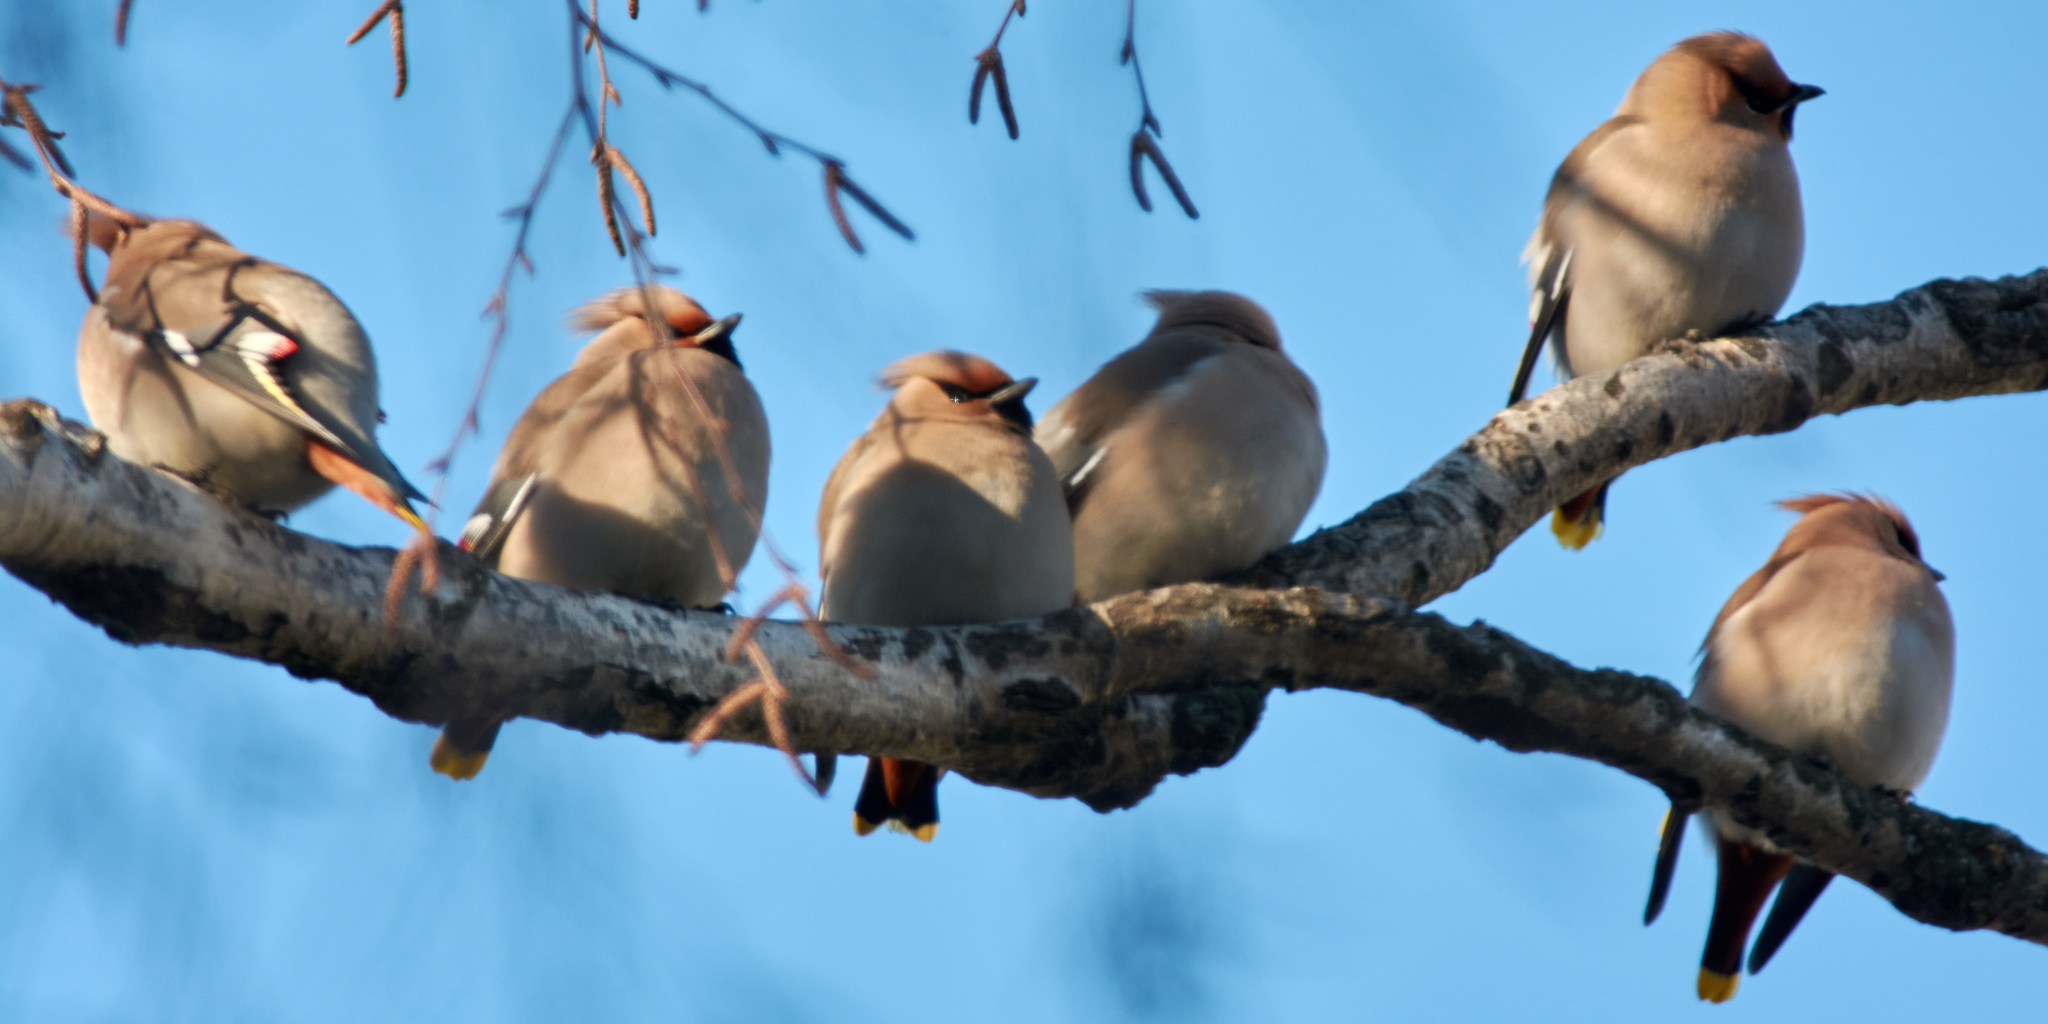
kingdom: Animalia
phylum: Chordata
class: Aves
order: Passeriformes
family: Bombycillidae
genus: Bombycilla
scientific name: Bombycilla garrulus
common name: Bohemian waxwing
